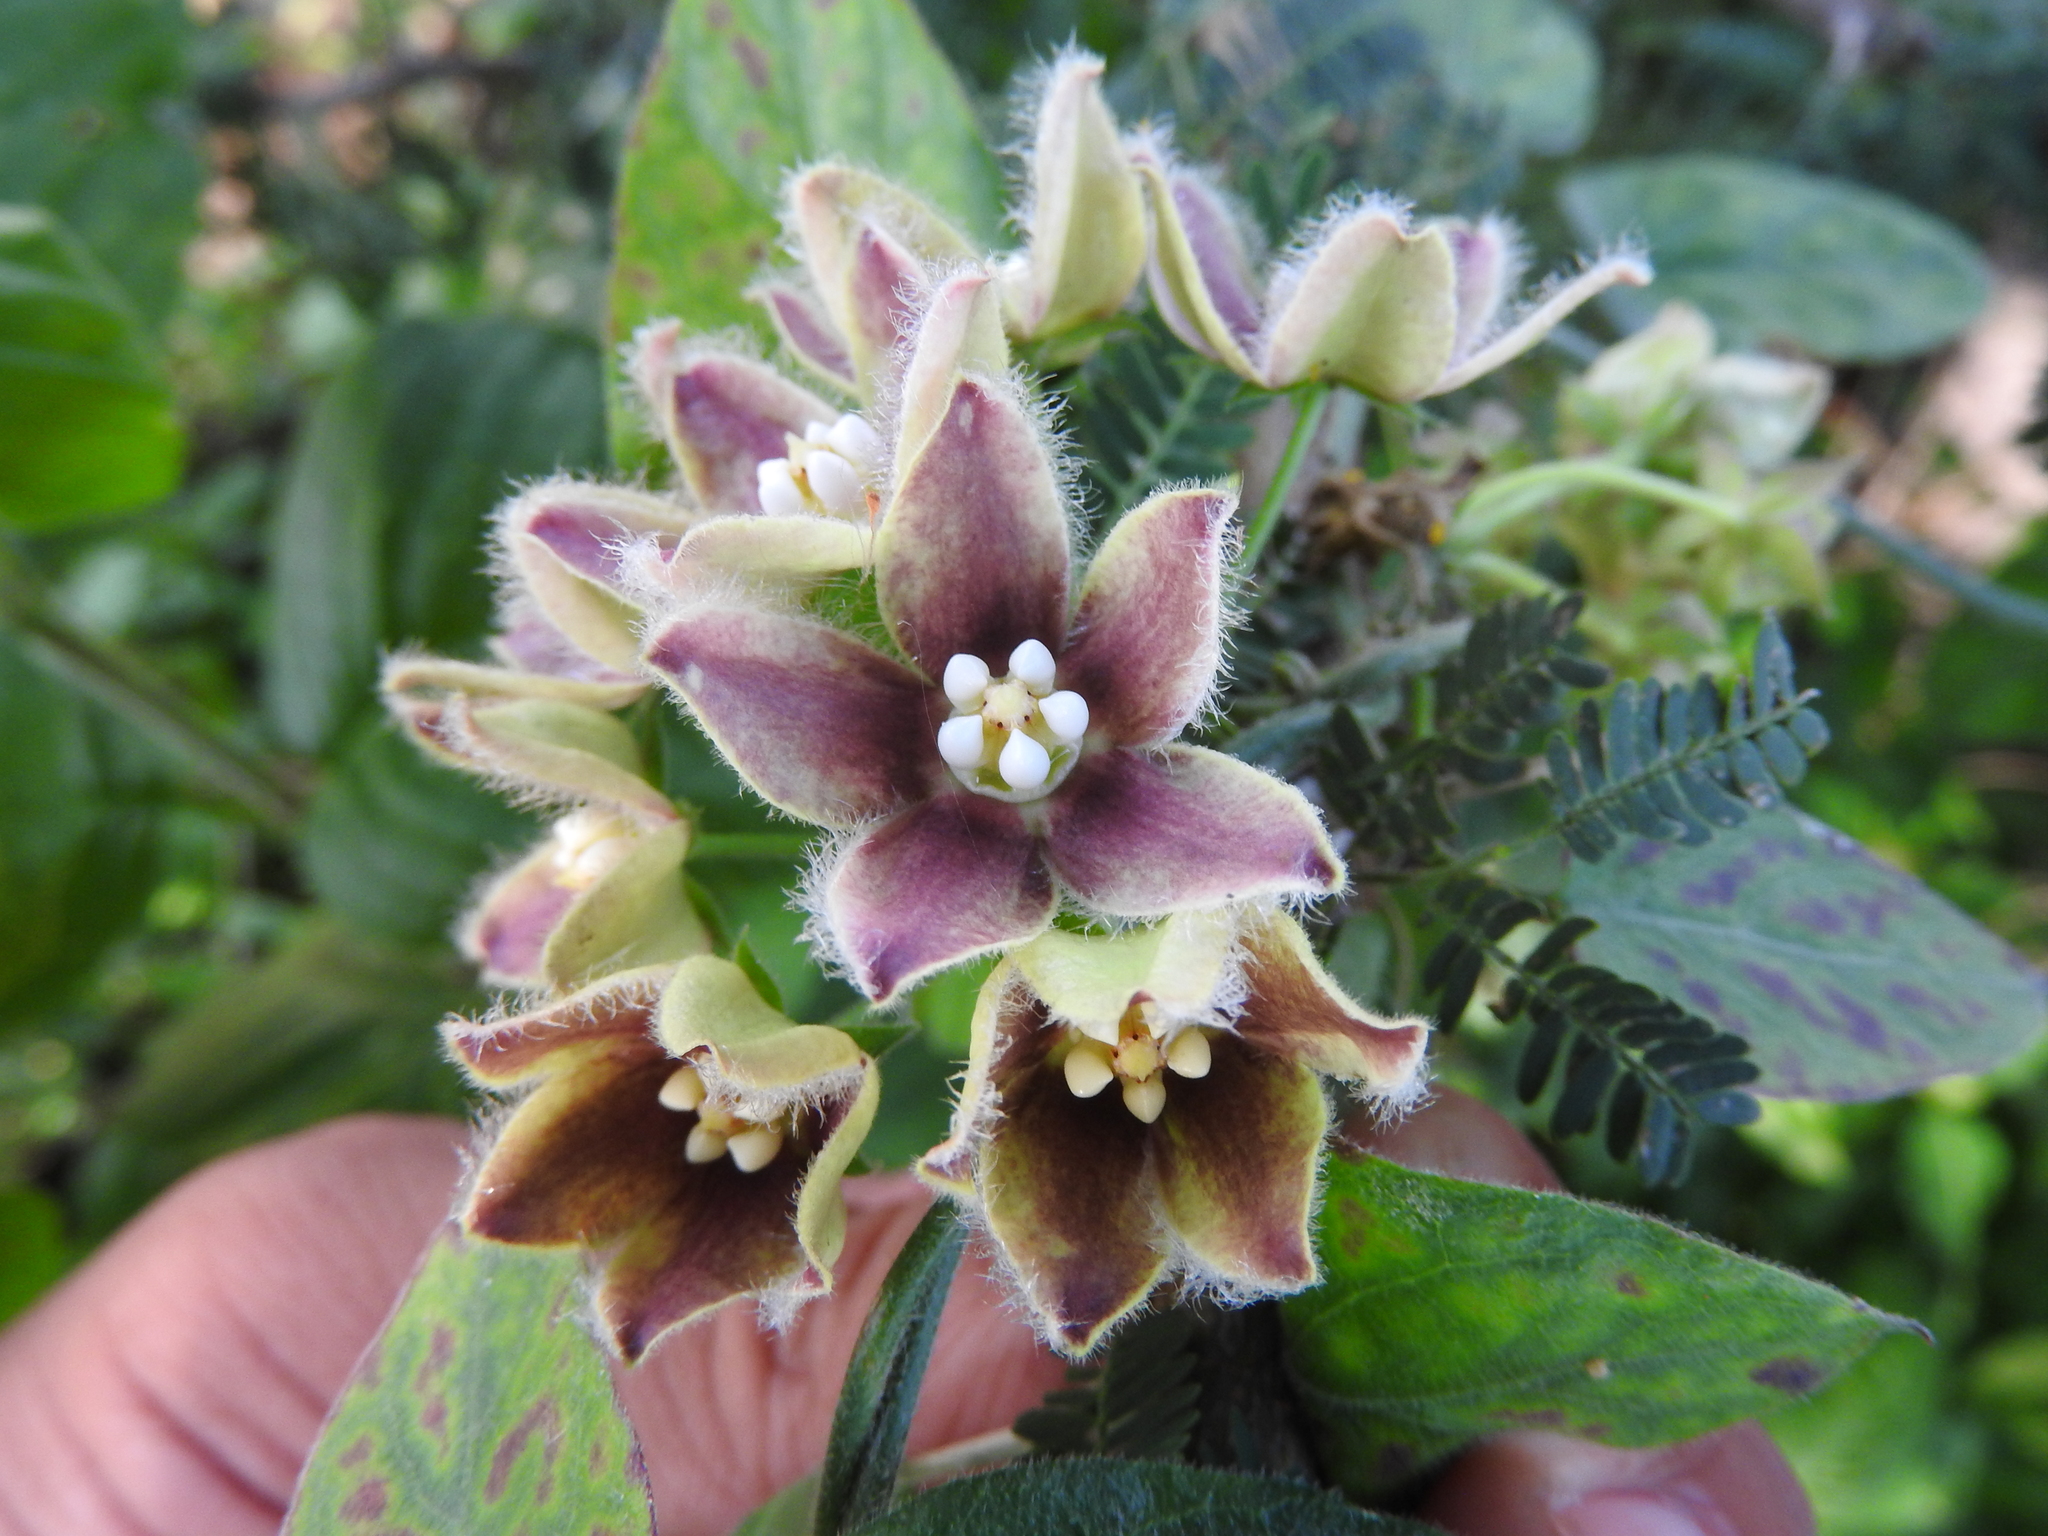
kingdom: Plantae
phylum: Tracheophyta
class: Magnoliopsida
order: Gentianales
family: Apocynaceae
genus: Funastrum
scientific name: Funastrum elegans
